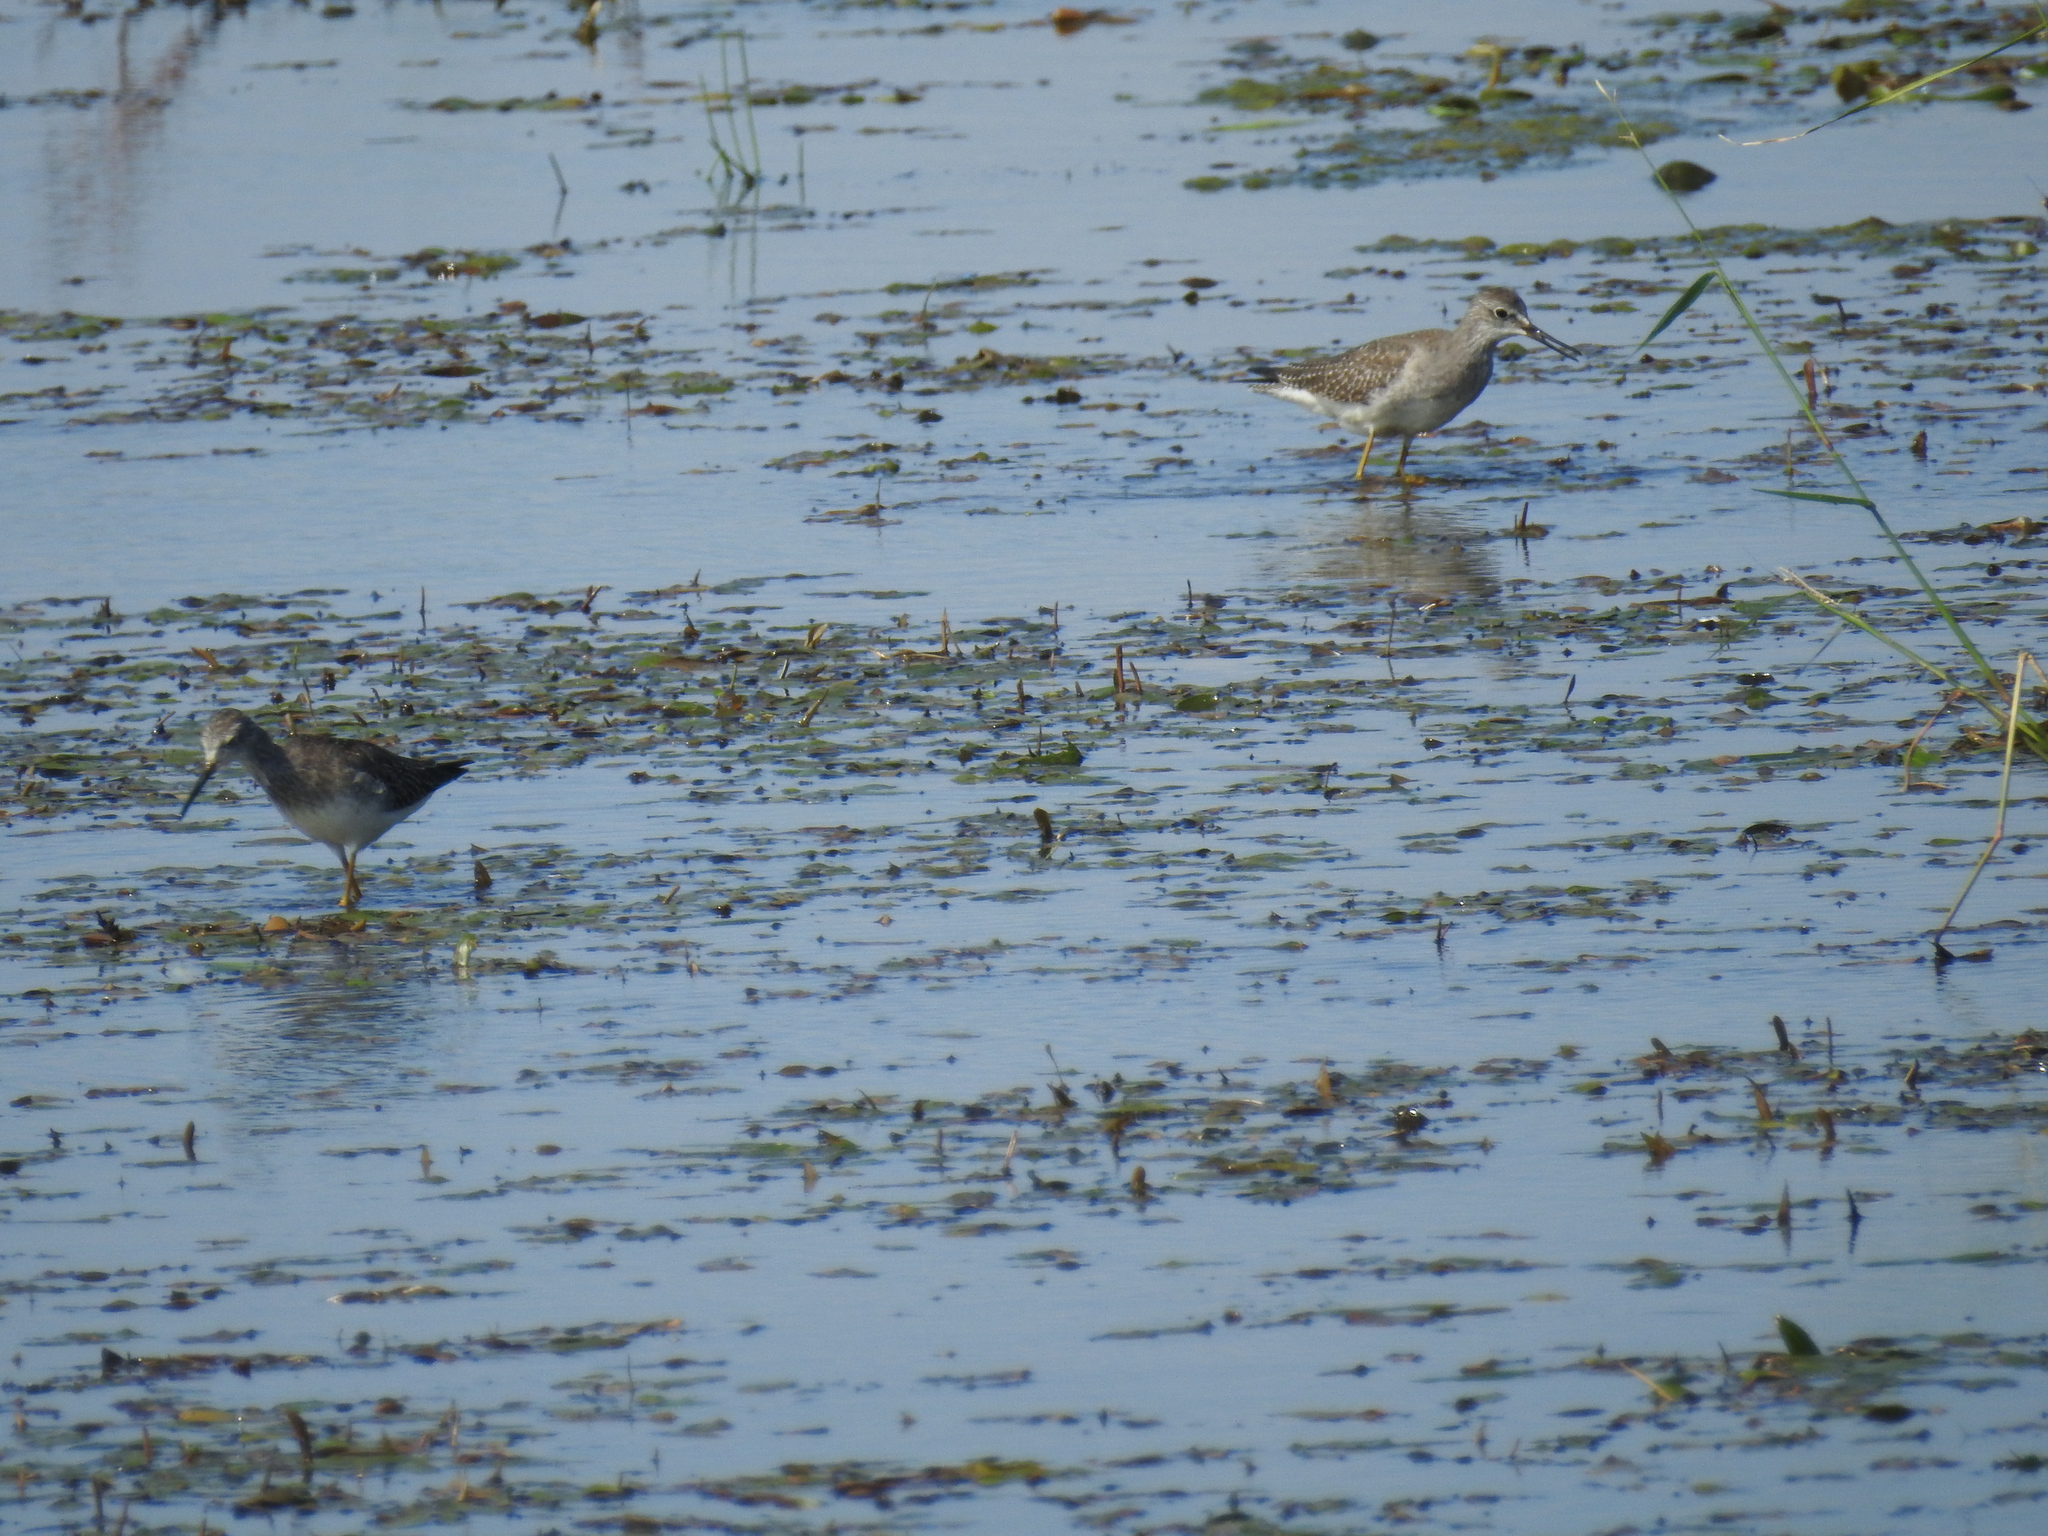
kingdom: Animalia
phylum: Chordata
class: Aves
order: Charadriiformes
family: Scolopacidae
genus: Tringa
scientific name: Tringa flavipes
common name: Lesser yellowlegs
